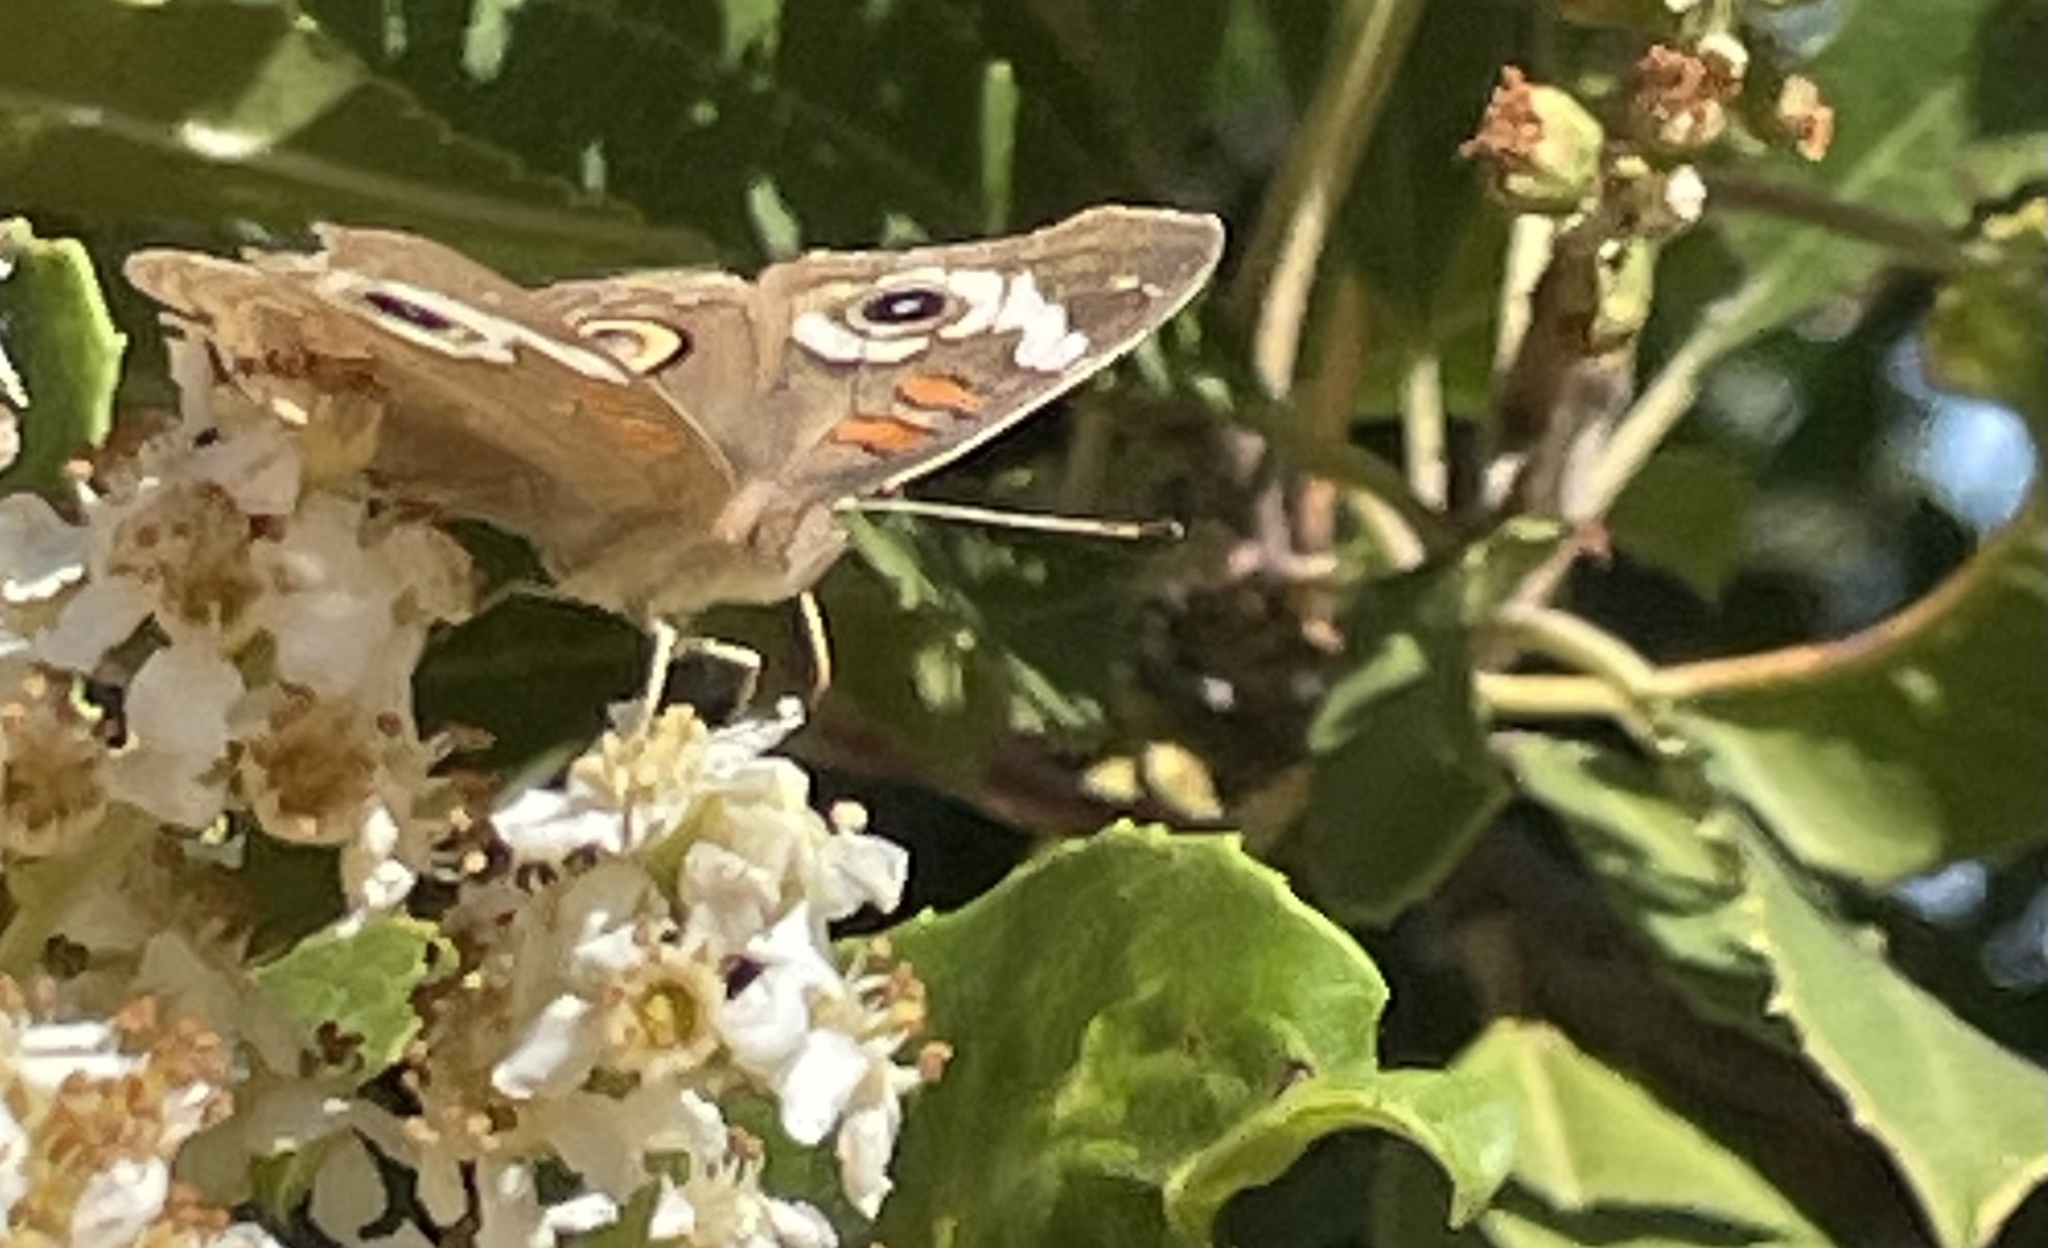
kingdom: Animalia
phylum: Arthropoda
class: Insecta
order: Lepidoptera
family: Nymphalidae
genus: Junonia
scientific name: Junonia grisea
